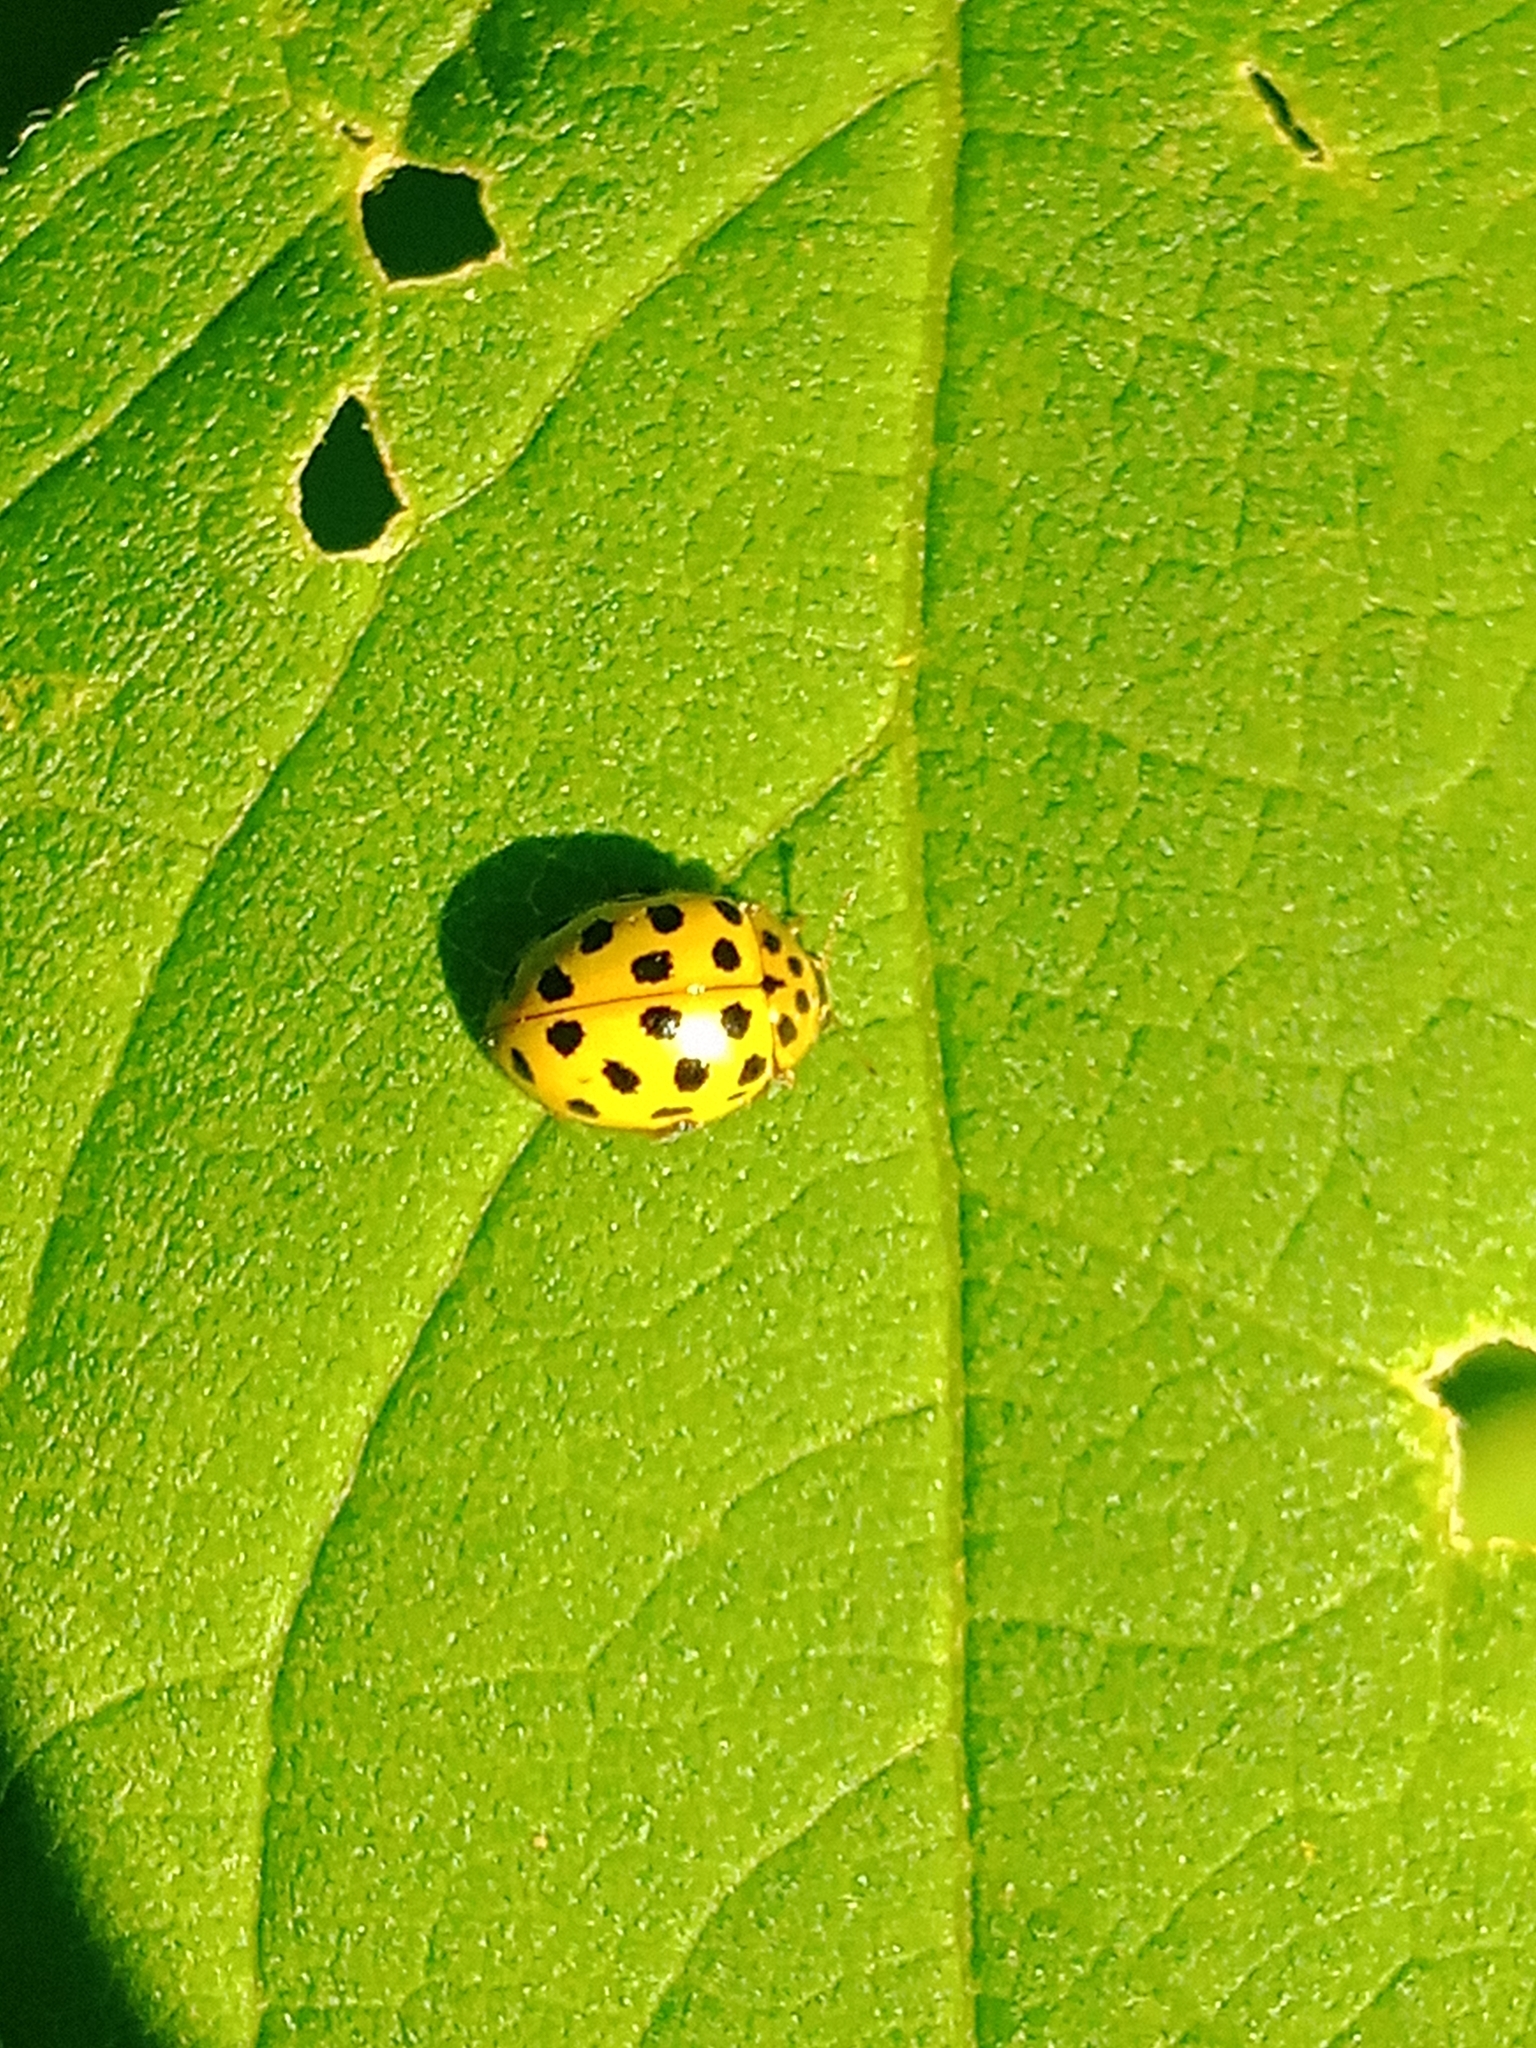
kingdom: Animalia
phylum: Arthropoda
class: Insecta
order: Coleoptera
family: Coccinellidae
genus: Psyllobora
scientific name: Psyllobora vigintiduopunctata
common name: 22-spot ladybird
